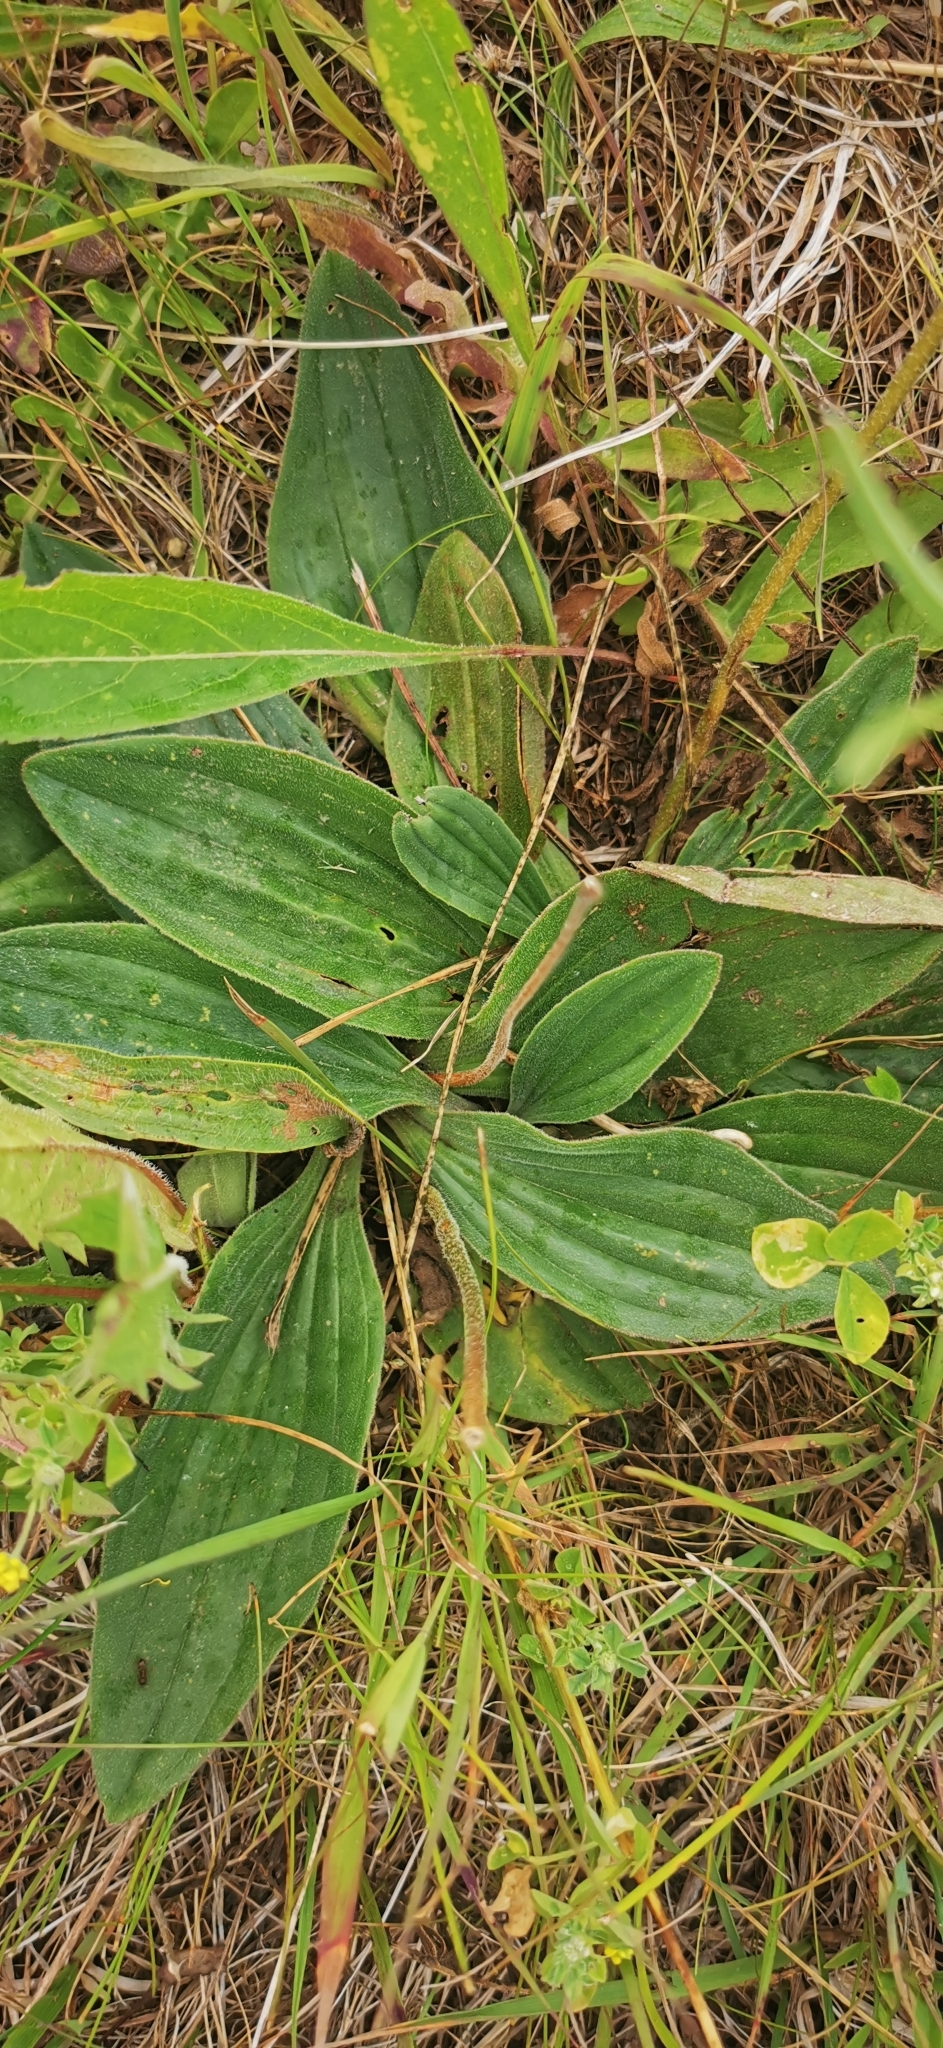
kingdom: Plantae
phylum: Tracheophyta
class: Magnoliopsida
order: Lamiales
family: Plantaginaceae
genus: Plantago
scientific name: Plantago media
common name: Hoary plantain
